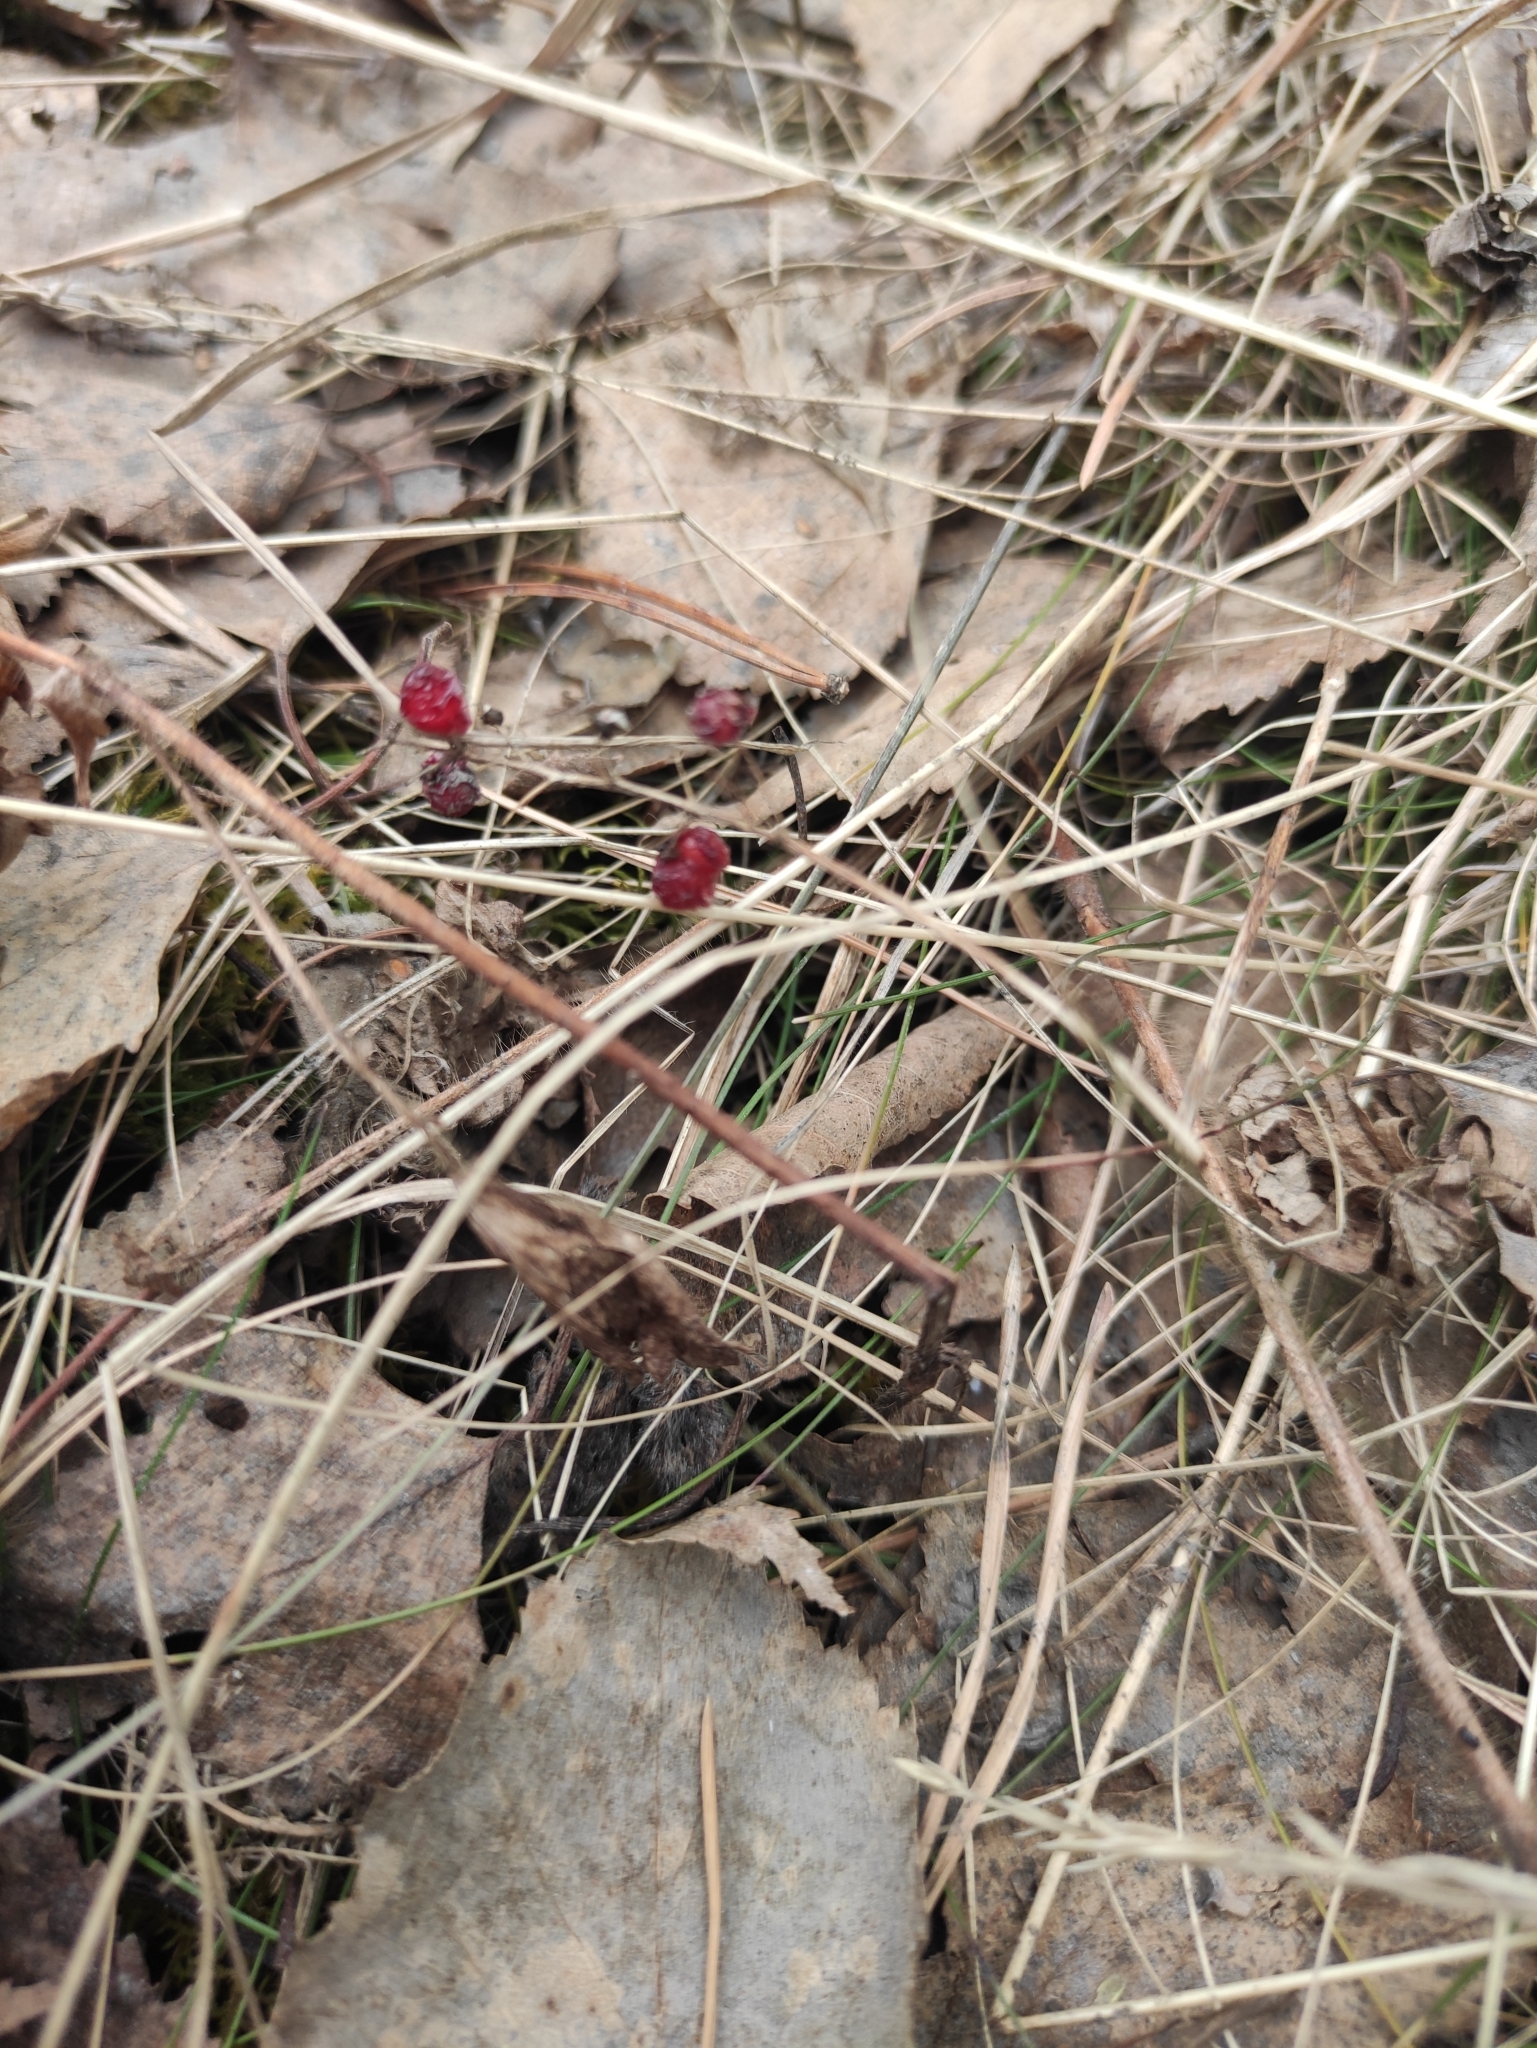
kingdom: Plantae
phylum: Tracheophyta
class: Liliopsida
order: Asparagales
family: Asparagaceae
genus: Maianthemum
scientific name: Maianthemum bifolium
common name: May lily
